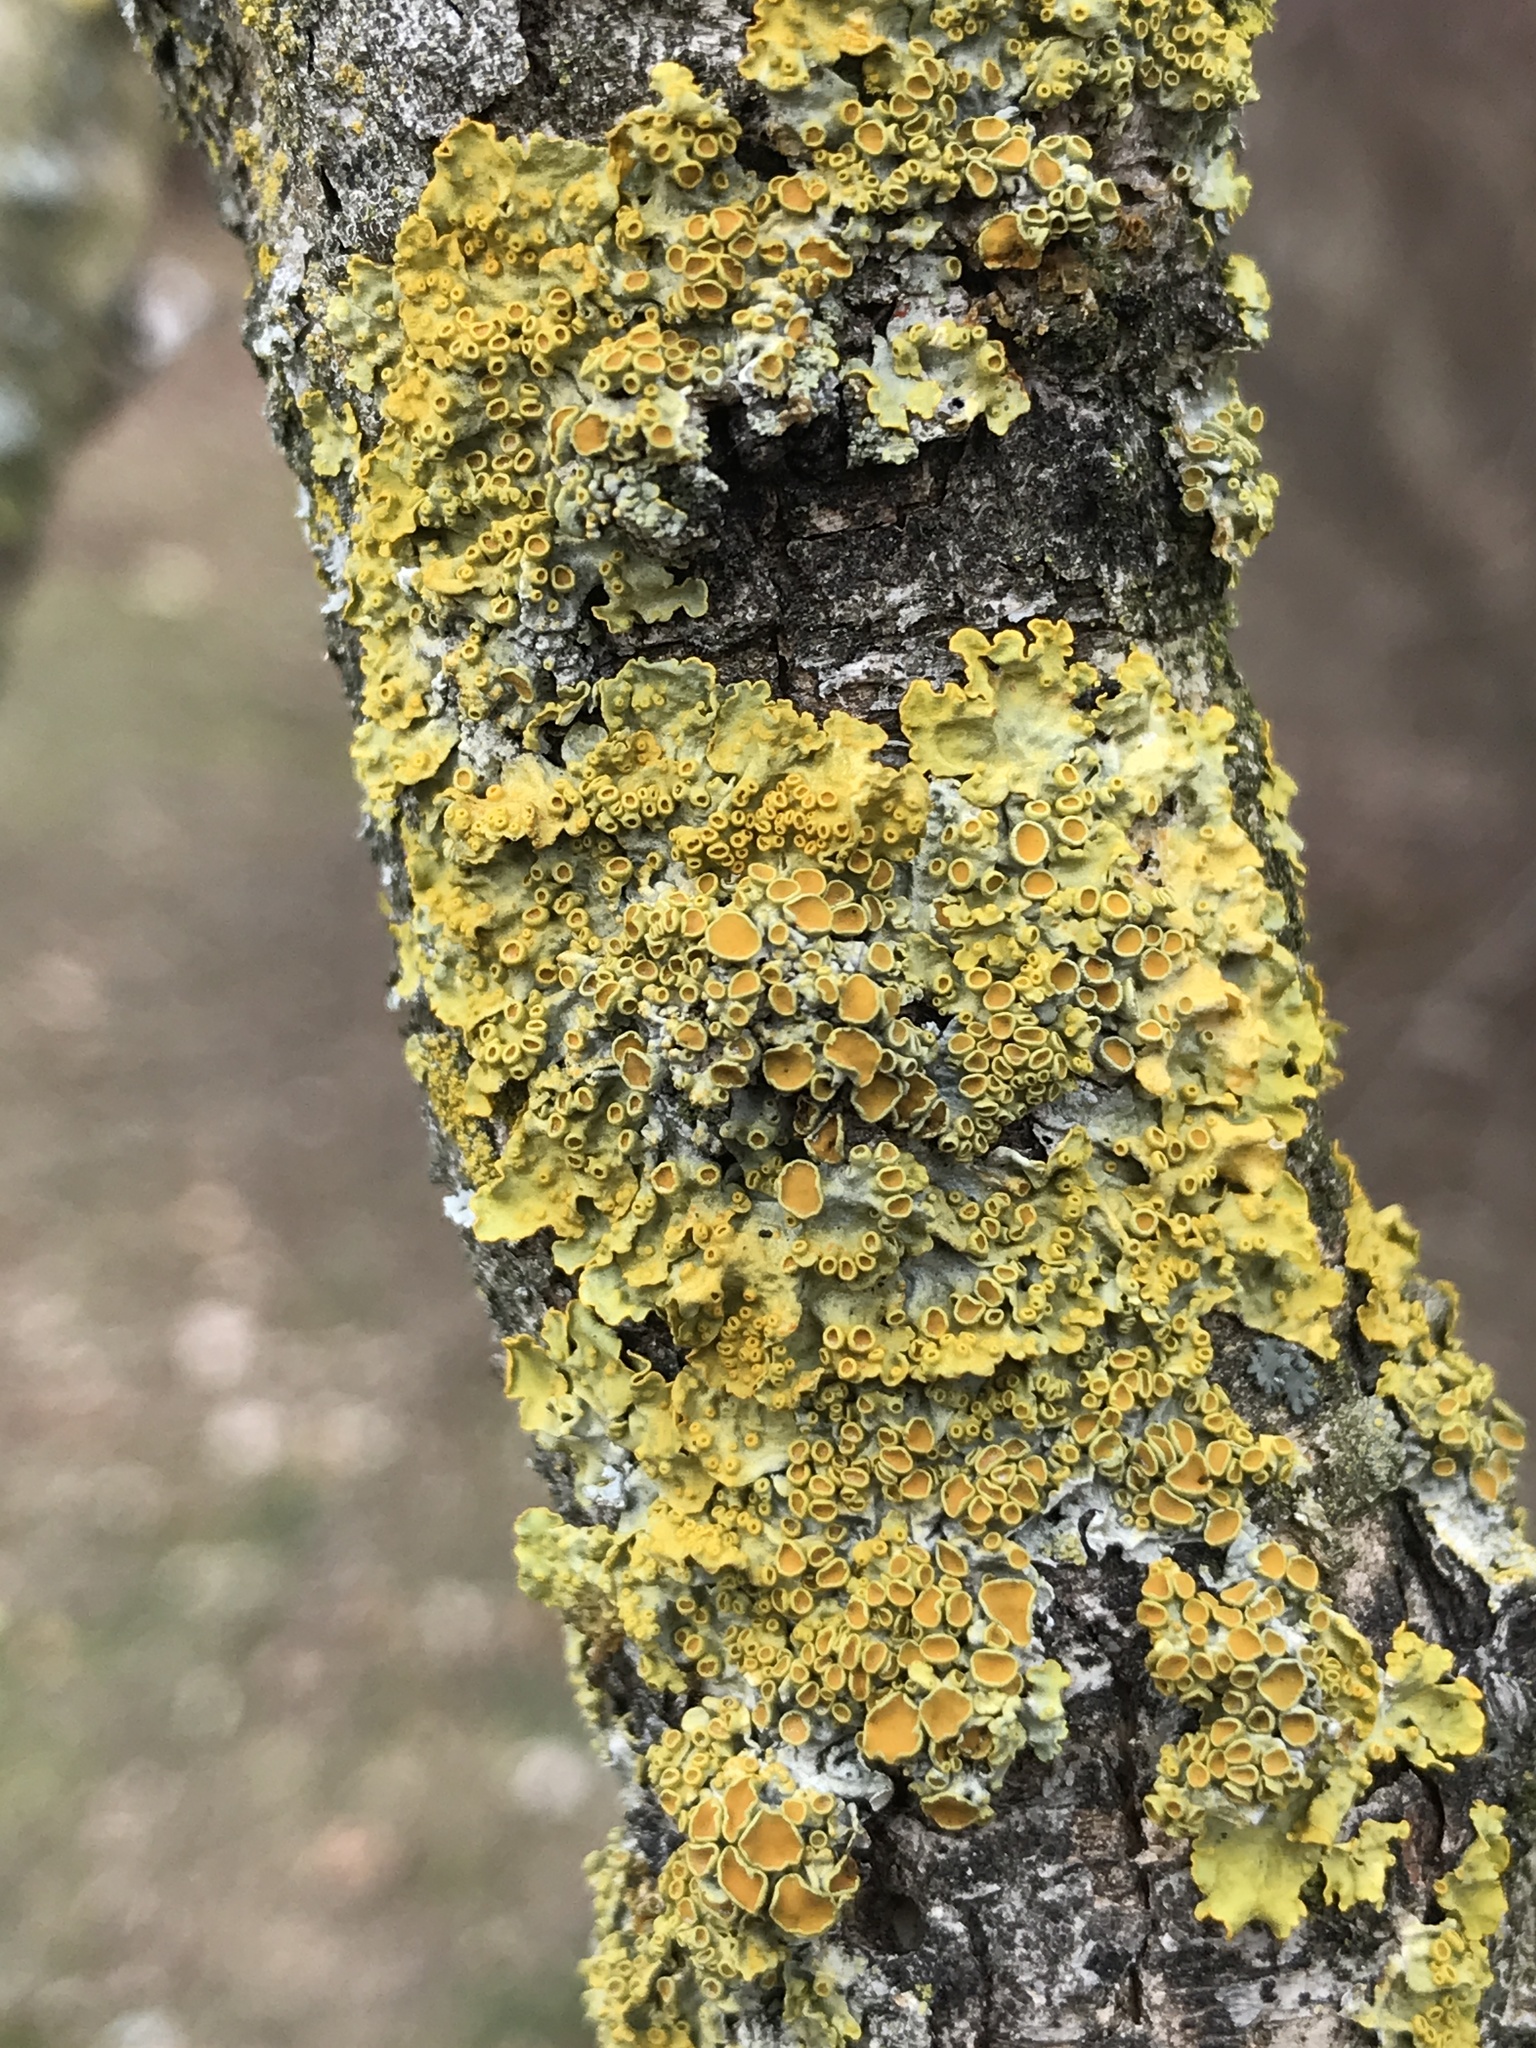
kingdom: Fungi
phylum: Ascomycota
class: Lecanoromycetes
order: Teloschistales
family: Teloschistaceae
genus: Xanthoria
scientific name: Xanthoria parietina
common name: Common orange lichen
